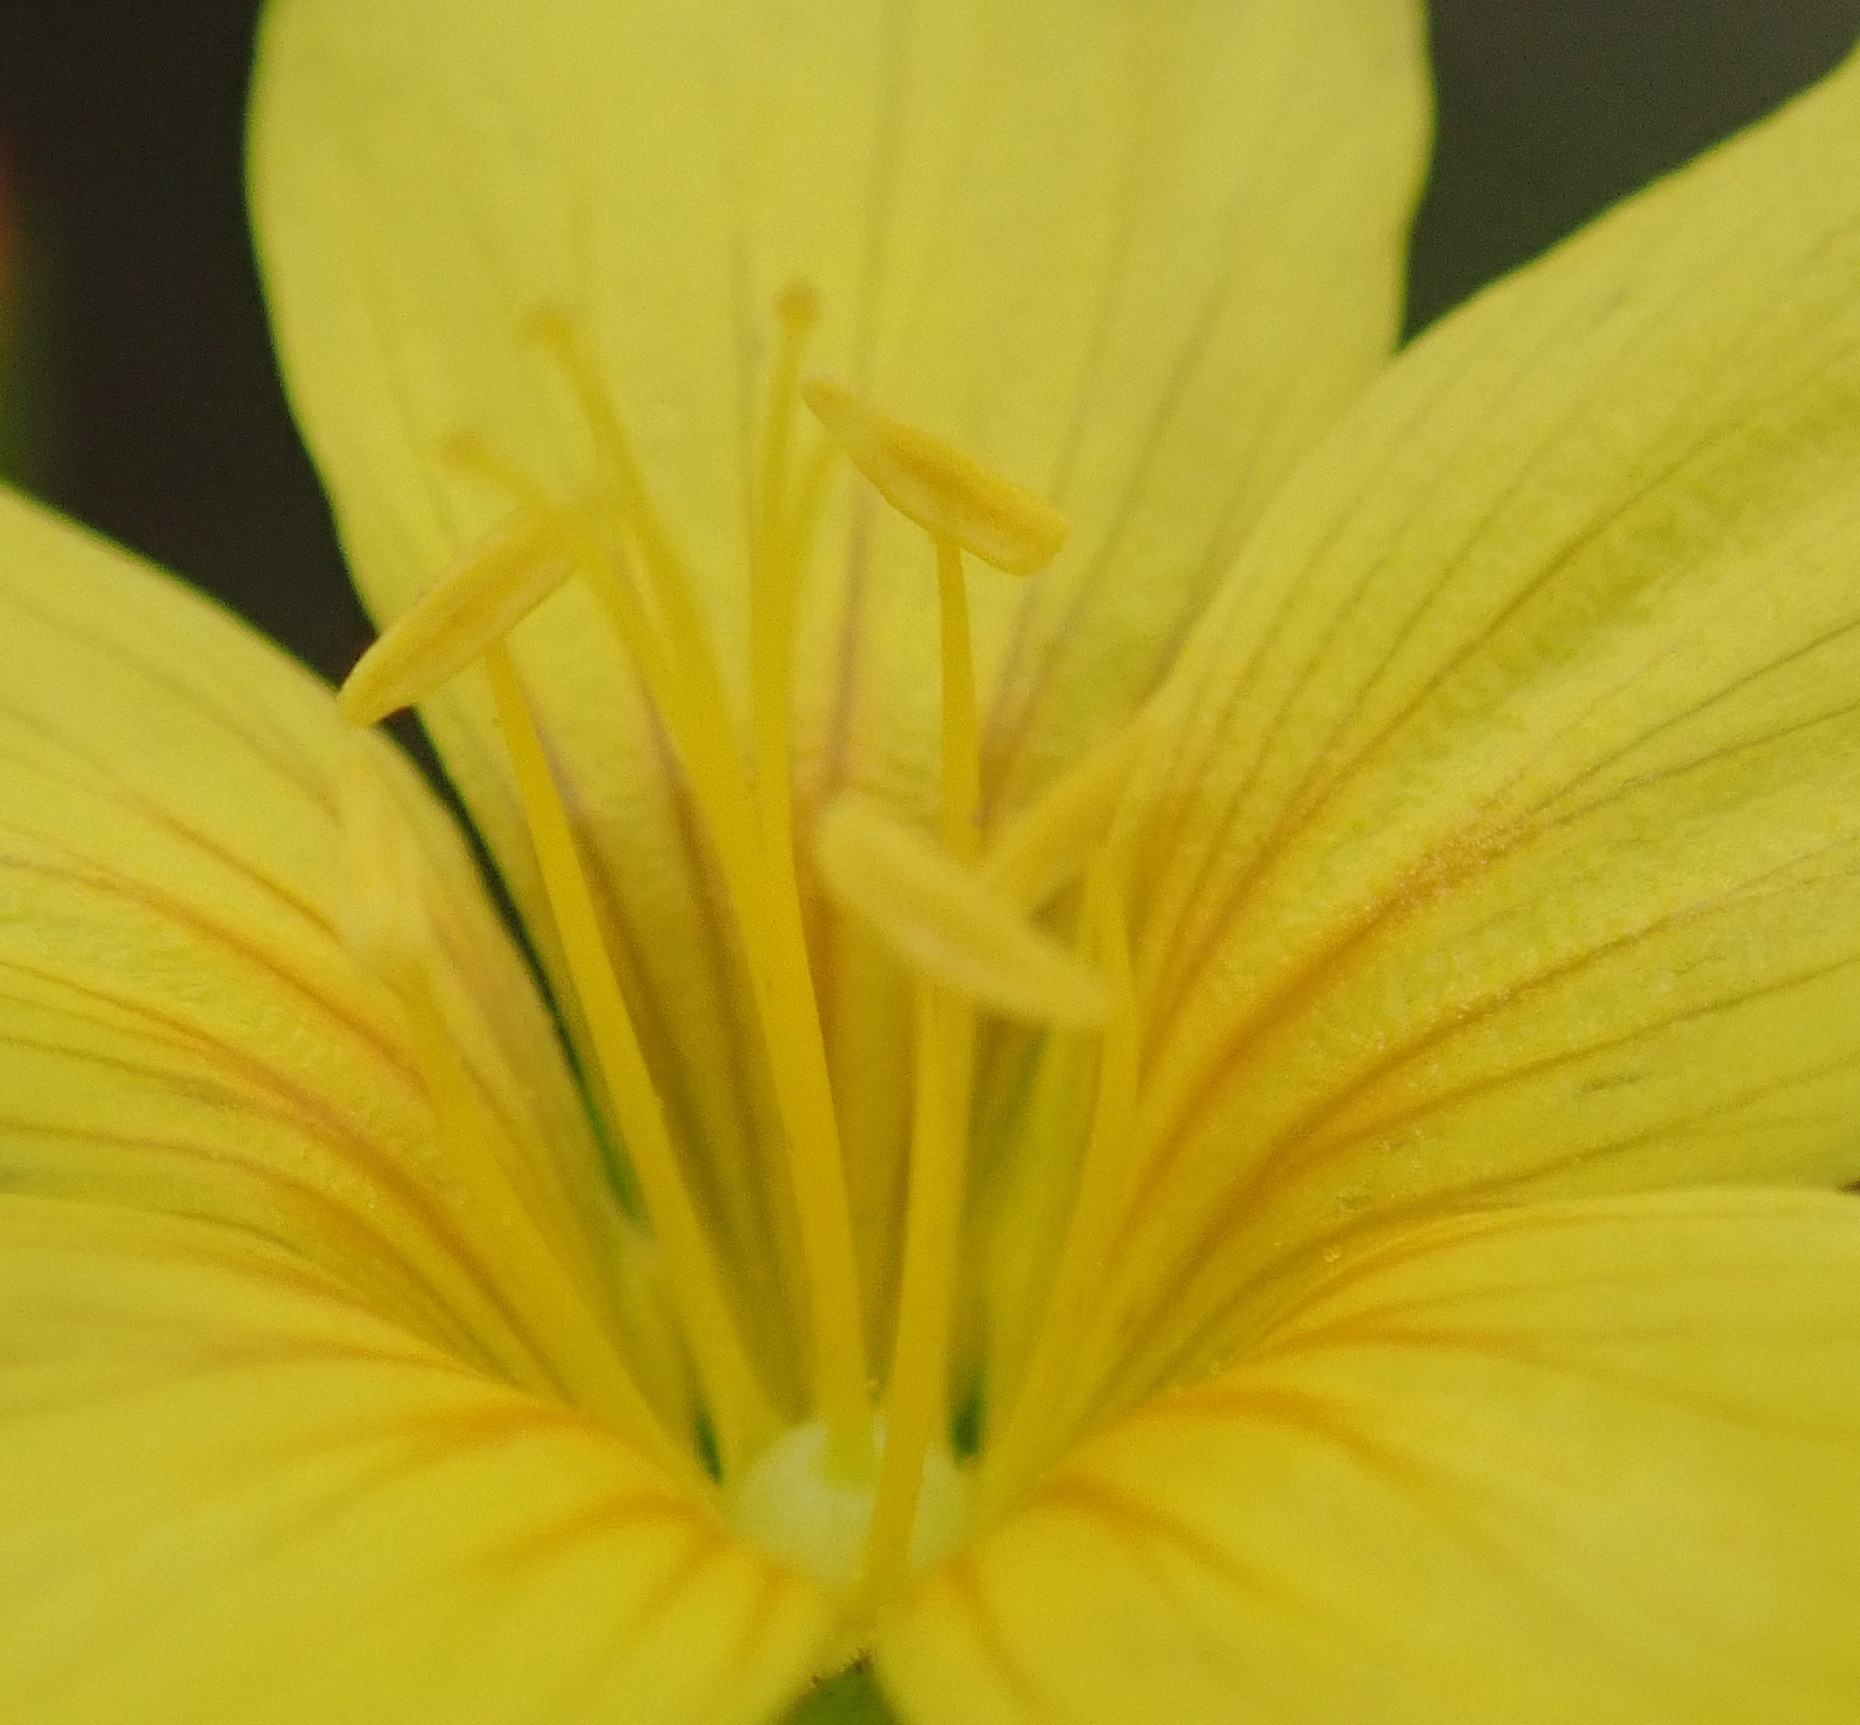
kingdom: Plantae
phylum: Tracheophyta
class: Magnoliopsida
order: Malpighiales
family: Linaceae
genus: Linum
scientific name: Linum africanum
